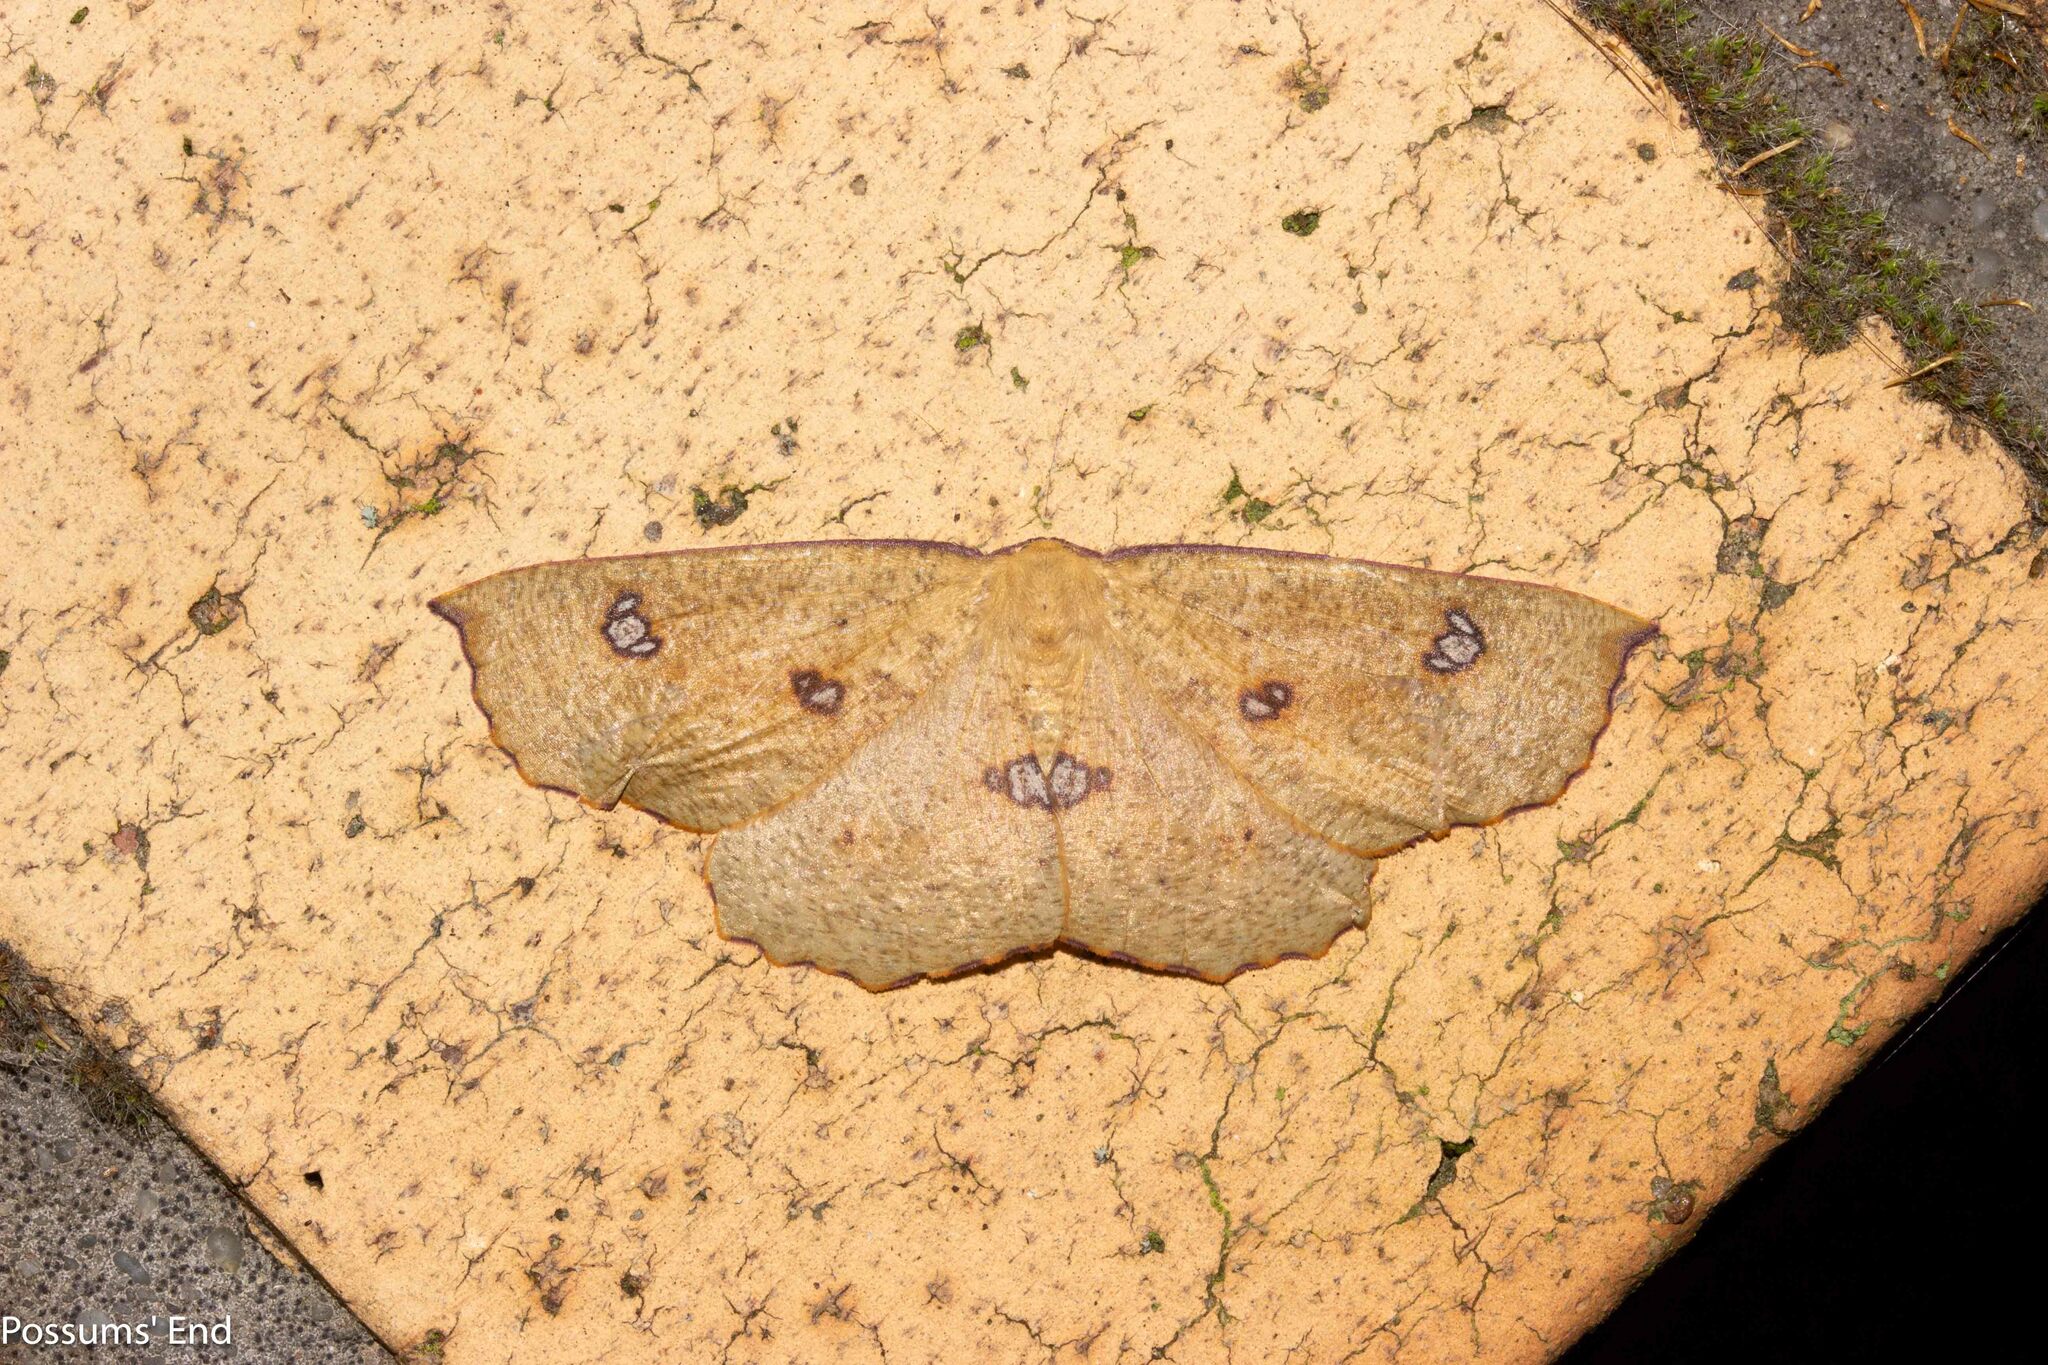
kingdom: Animalia
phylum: Arthropoda
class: Insecta
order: Lepidoptera
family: Geometridae
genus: Xyridacma
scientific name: Xyridacma alectoraria
